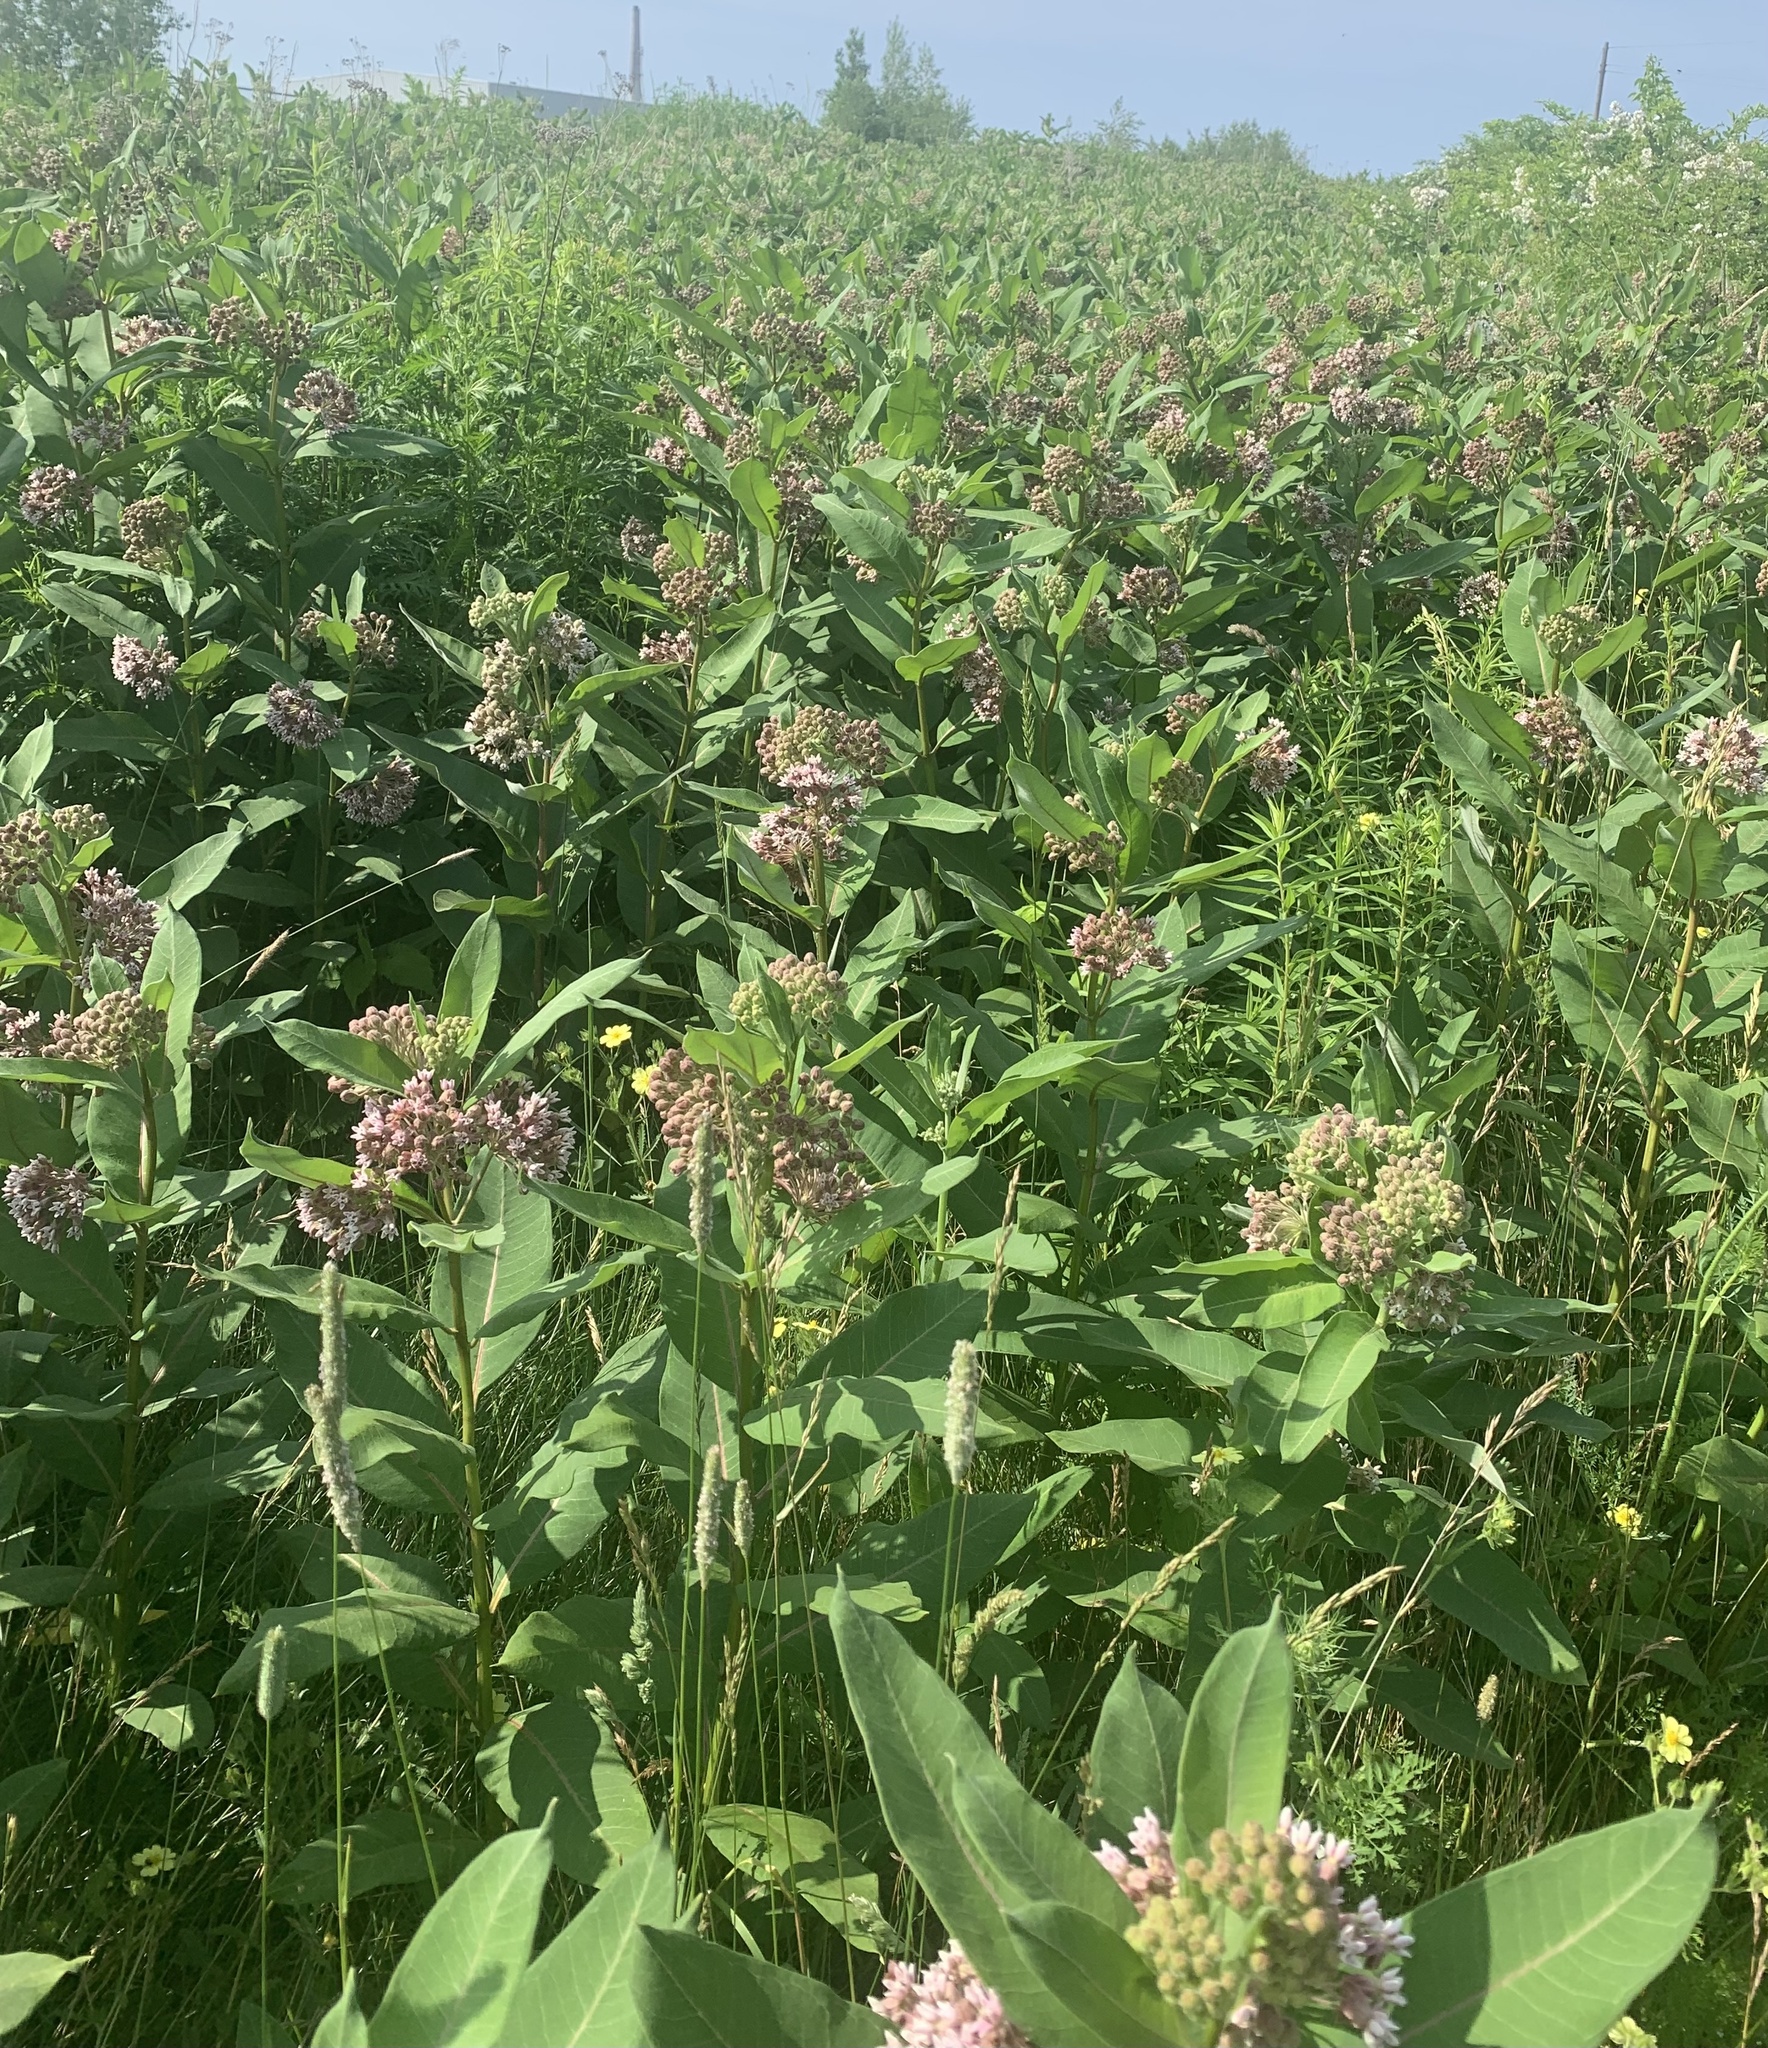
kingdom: Plantae
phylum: Tracheophyta
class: Magnoliopsida
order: Gentianales
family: Apocynaceae
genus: Asclepias
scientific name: Asclepias syriaca
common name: Common milkweed
